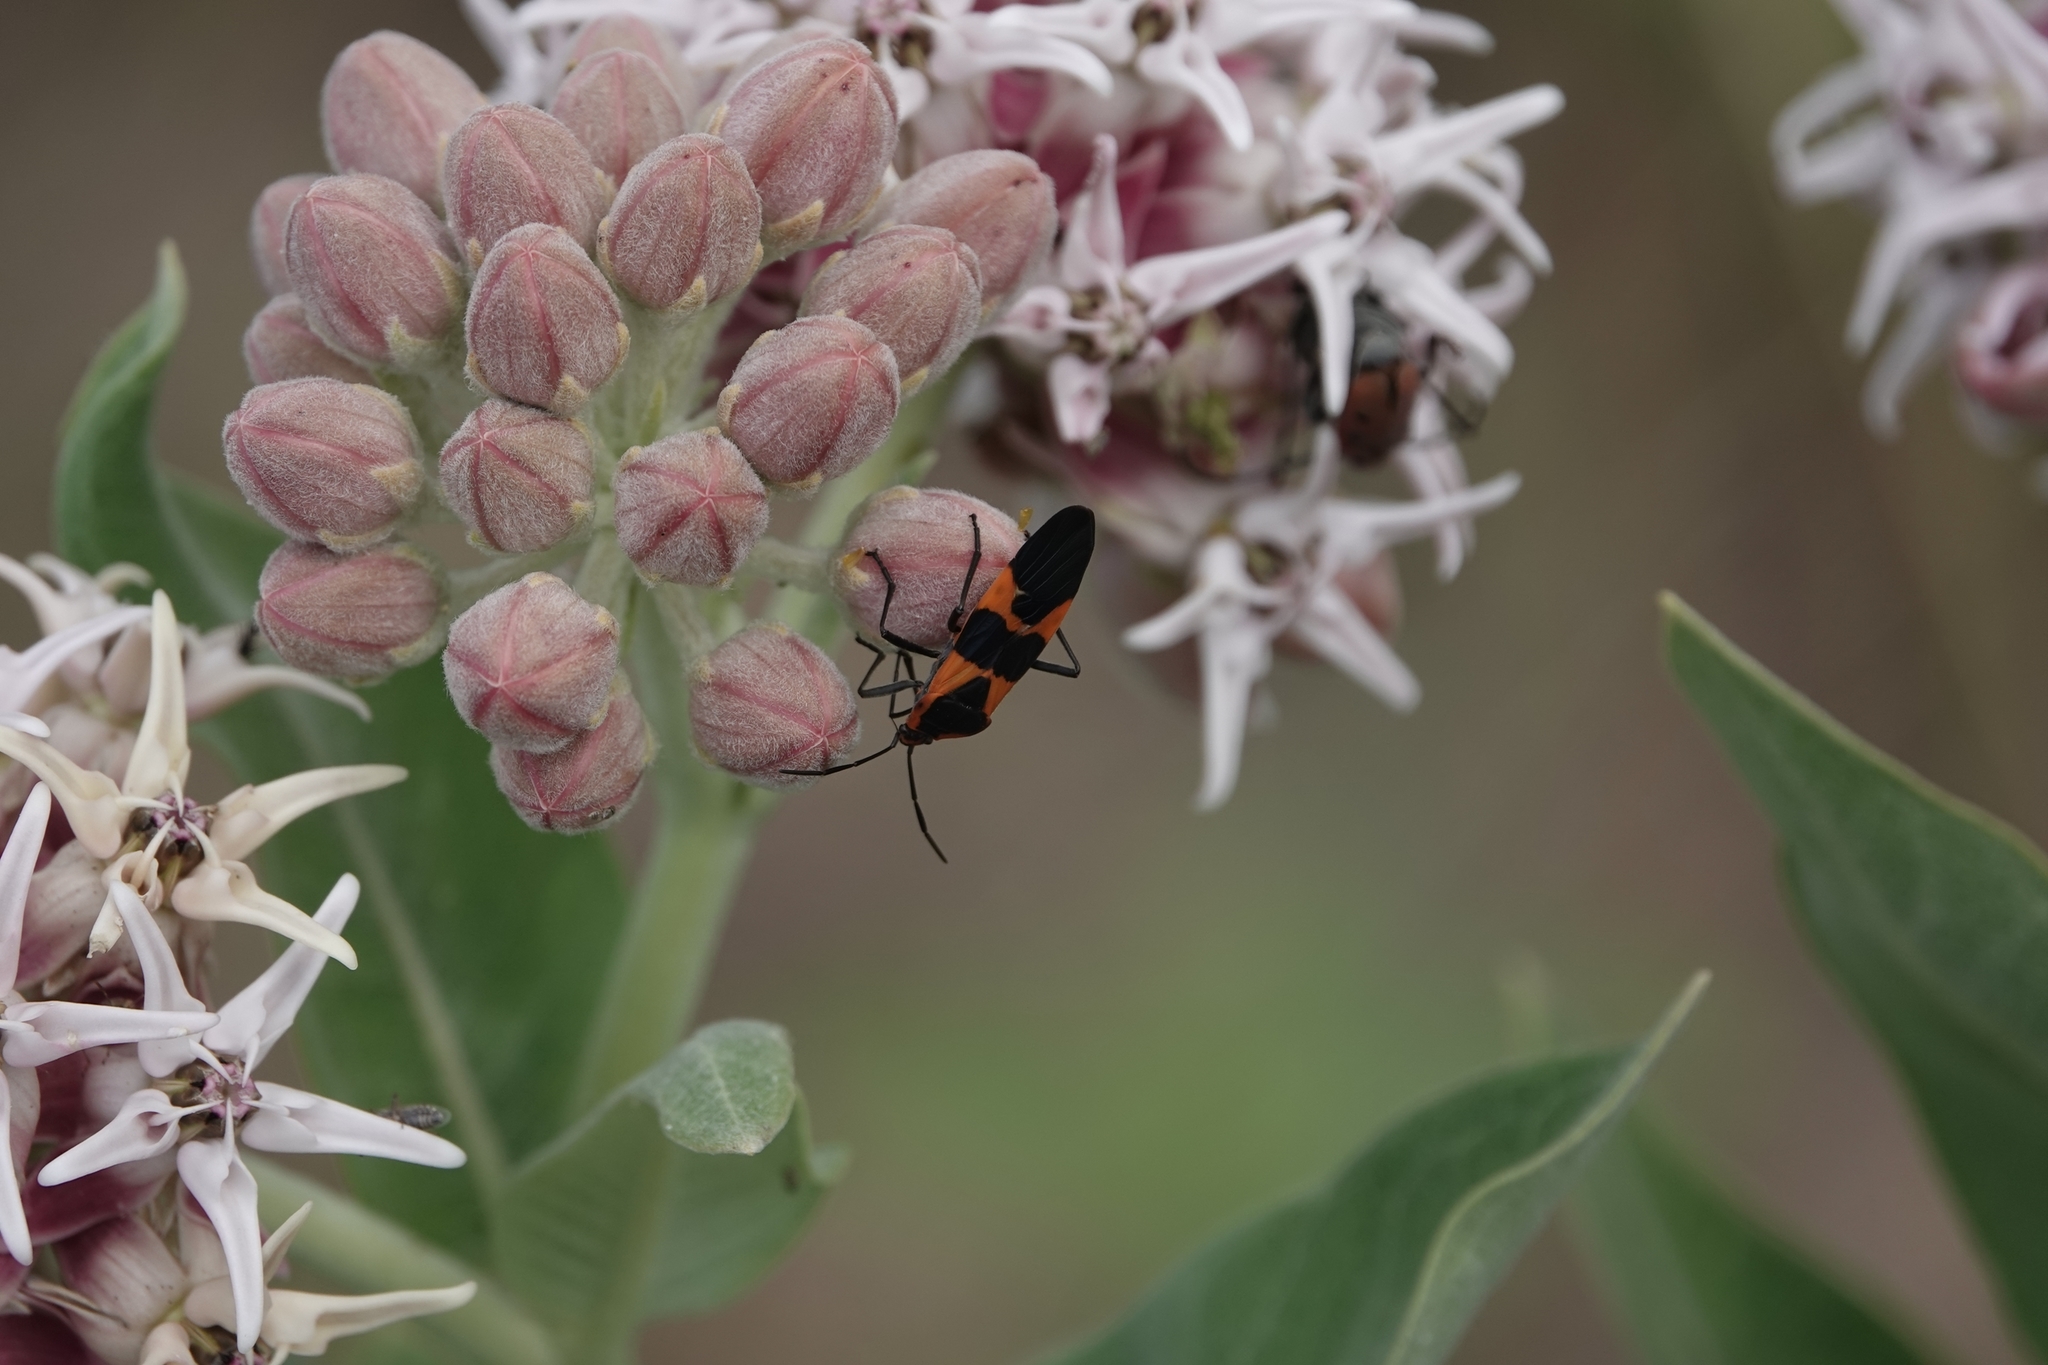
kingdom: Animalia
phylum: Arthropoda
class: Insecta
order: Hemiptera
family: Lygaeidae
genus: Oncopeltus
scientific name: Oncopeltus fasciatus
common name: Large milkweed bug
